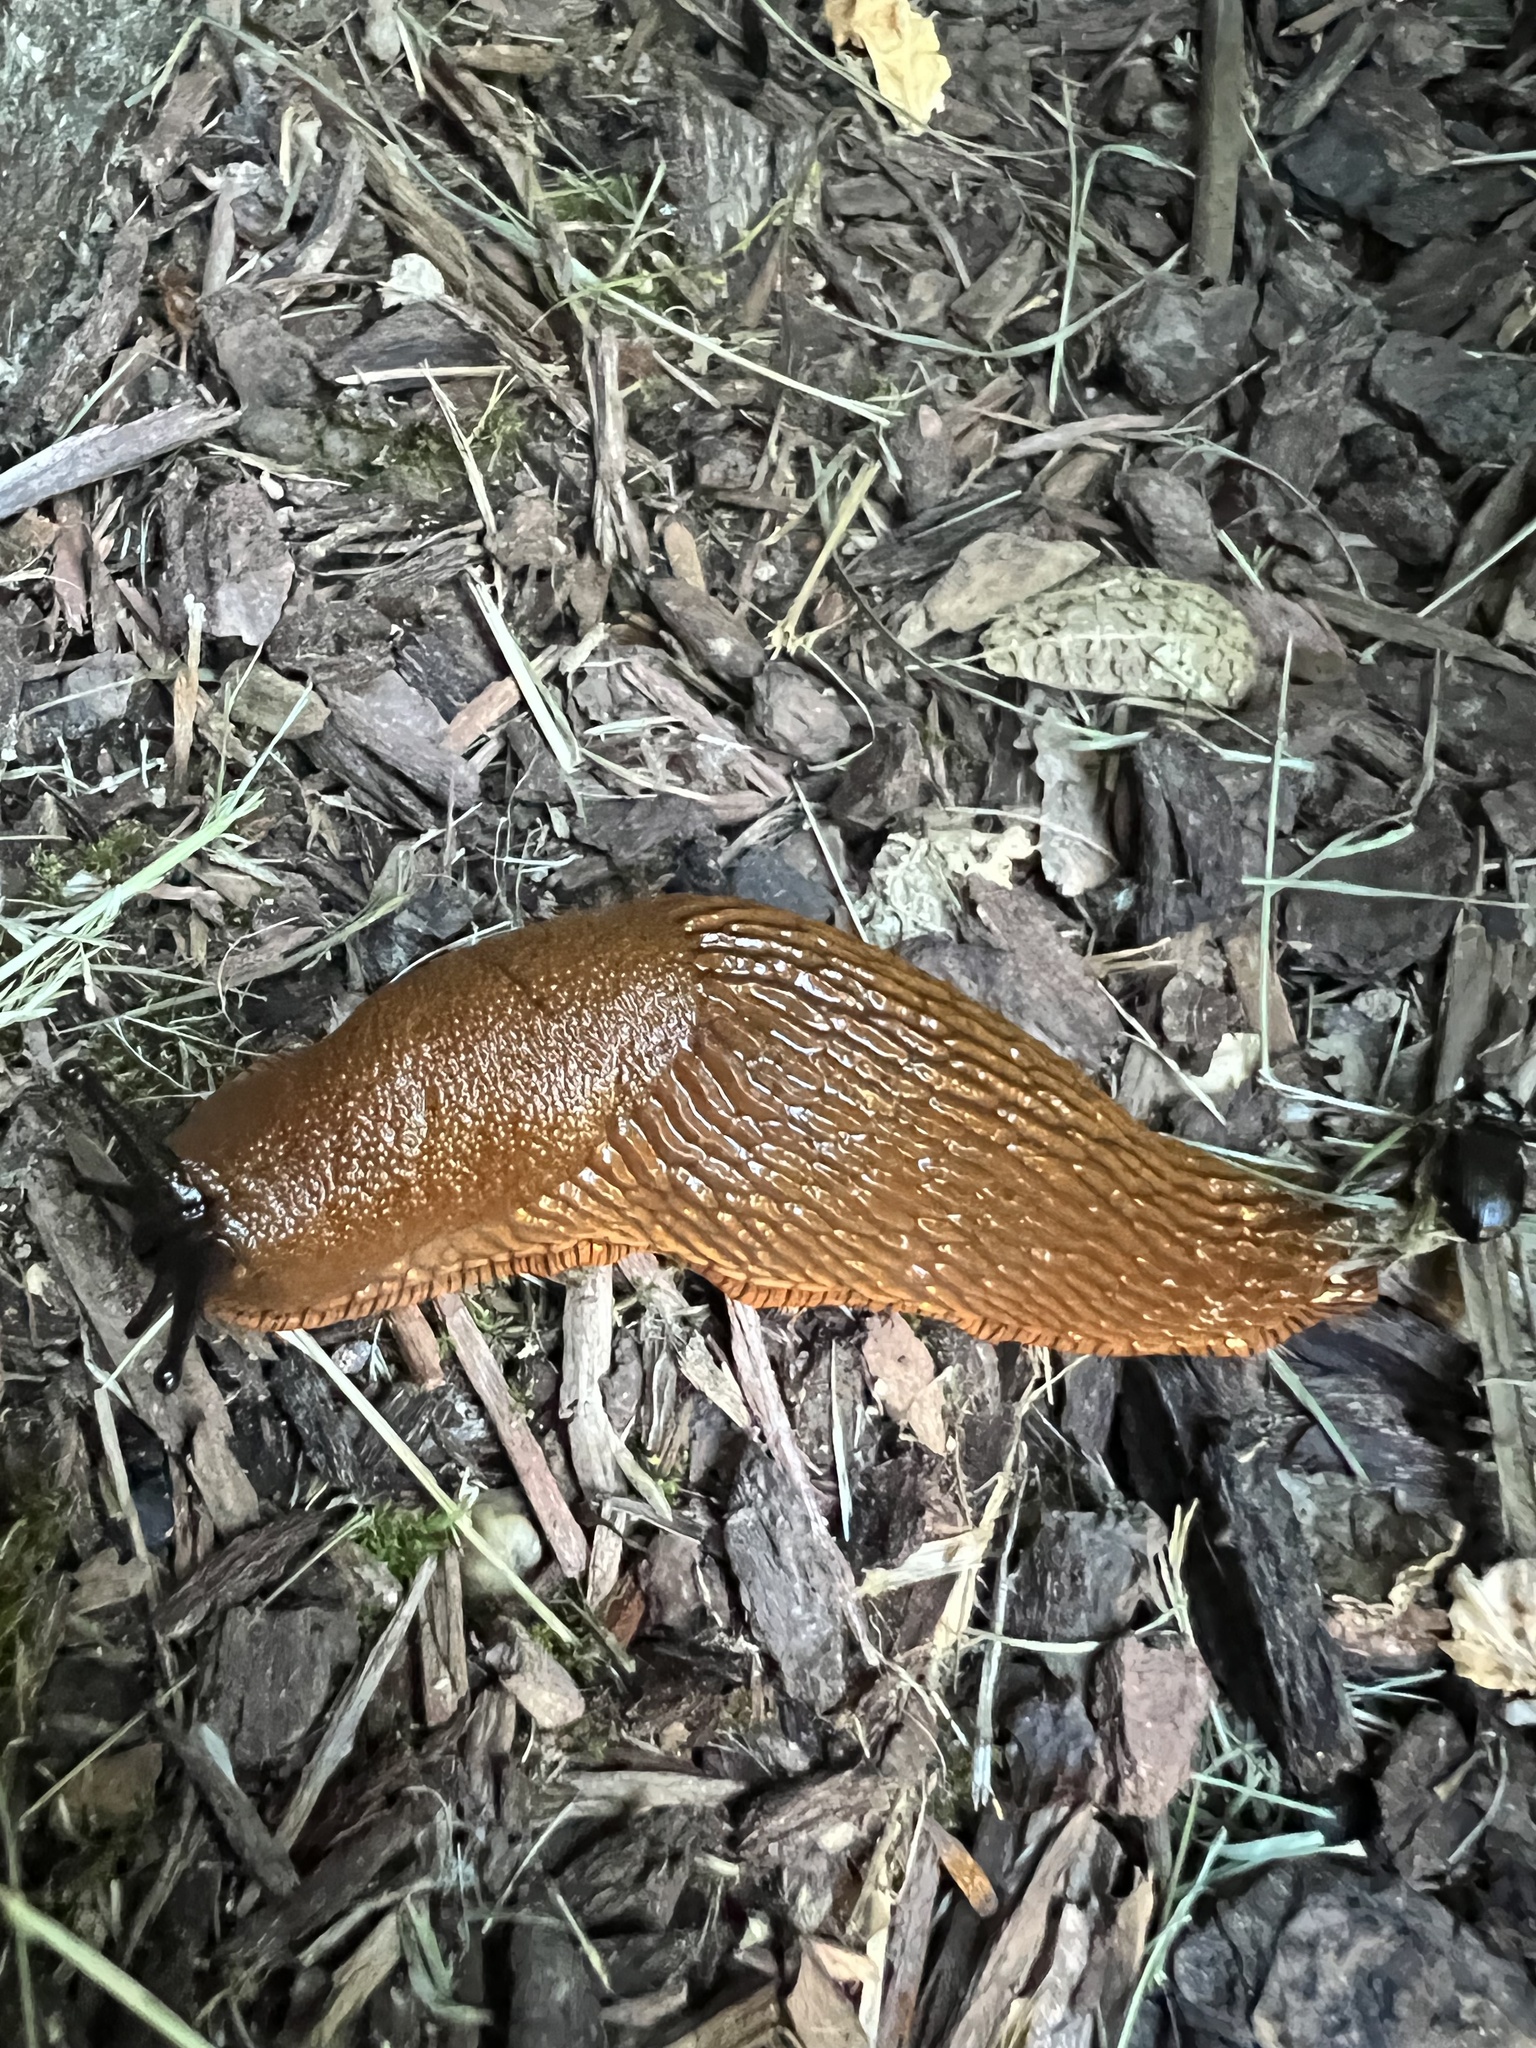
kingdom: Animalia
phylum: Mollusca
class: Gastropoda
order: Stylommatophora
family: Arionidae
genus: Arion
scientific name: Arion
